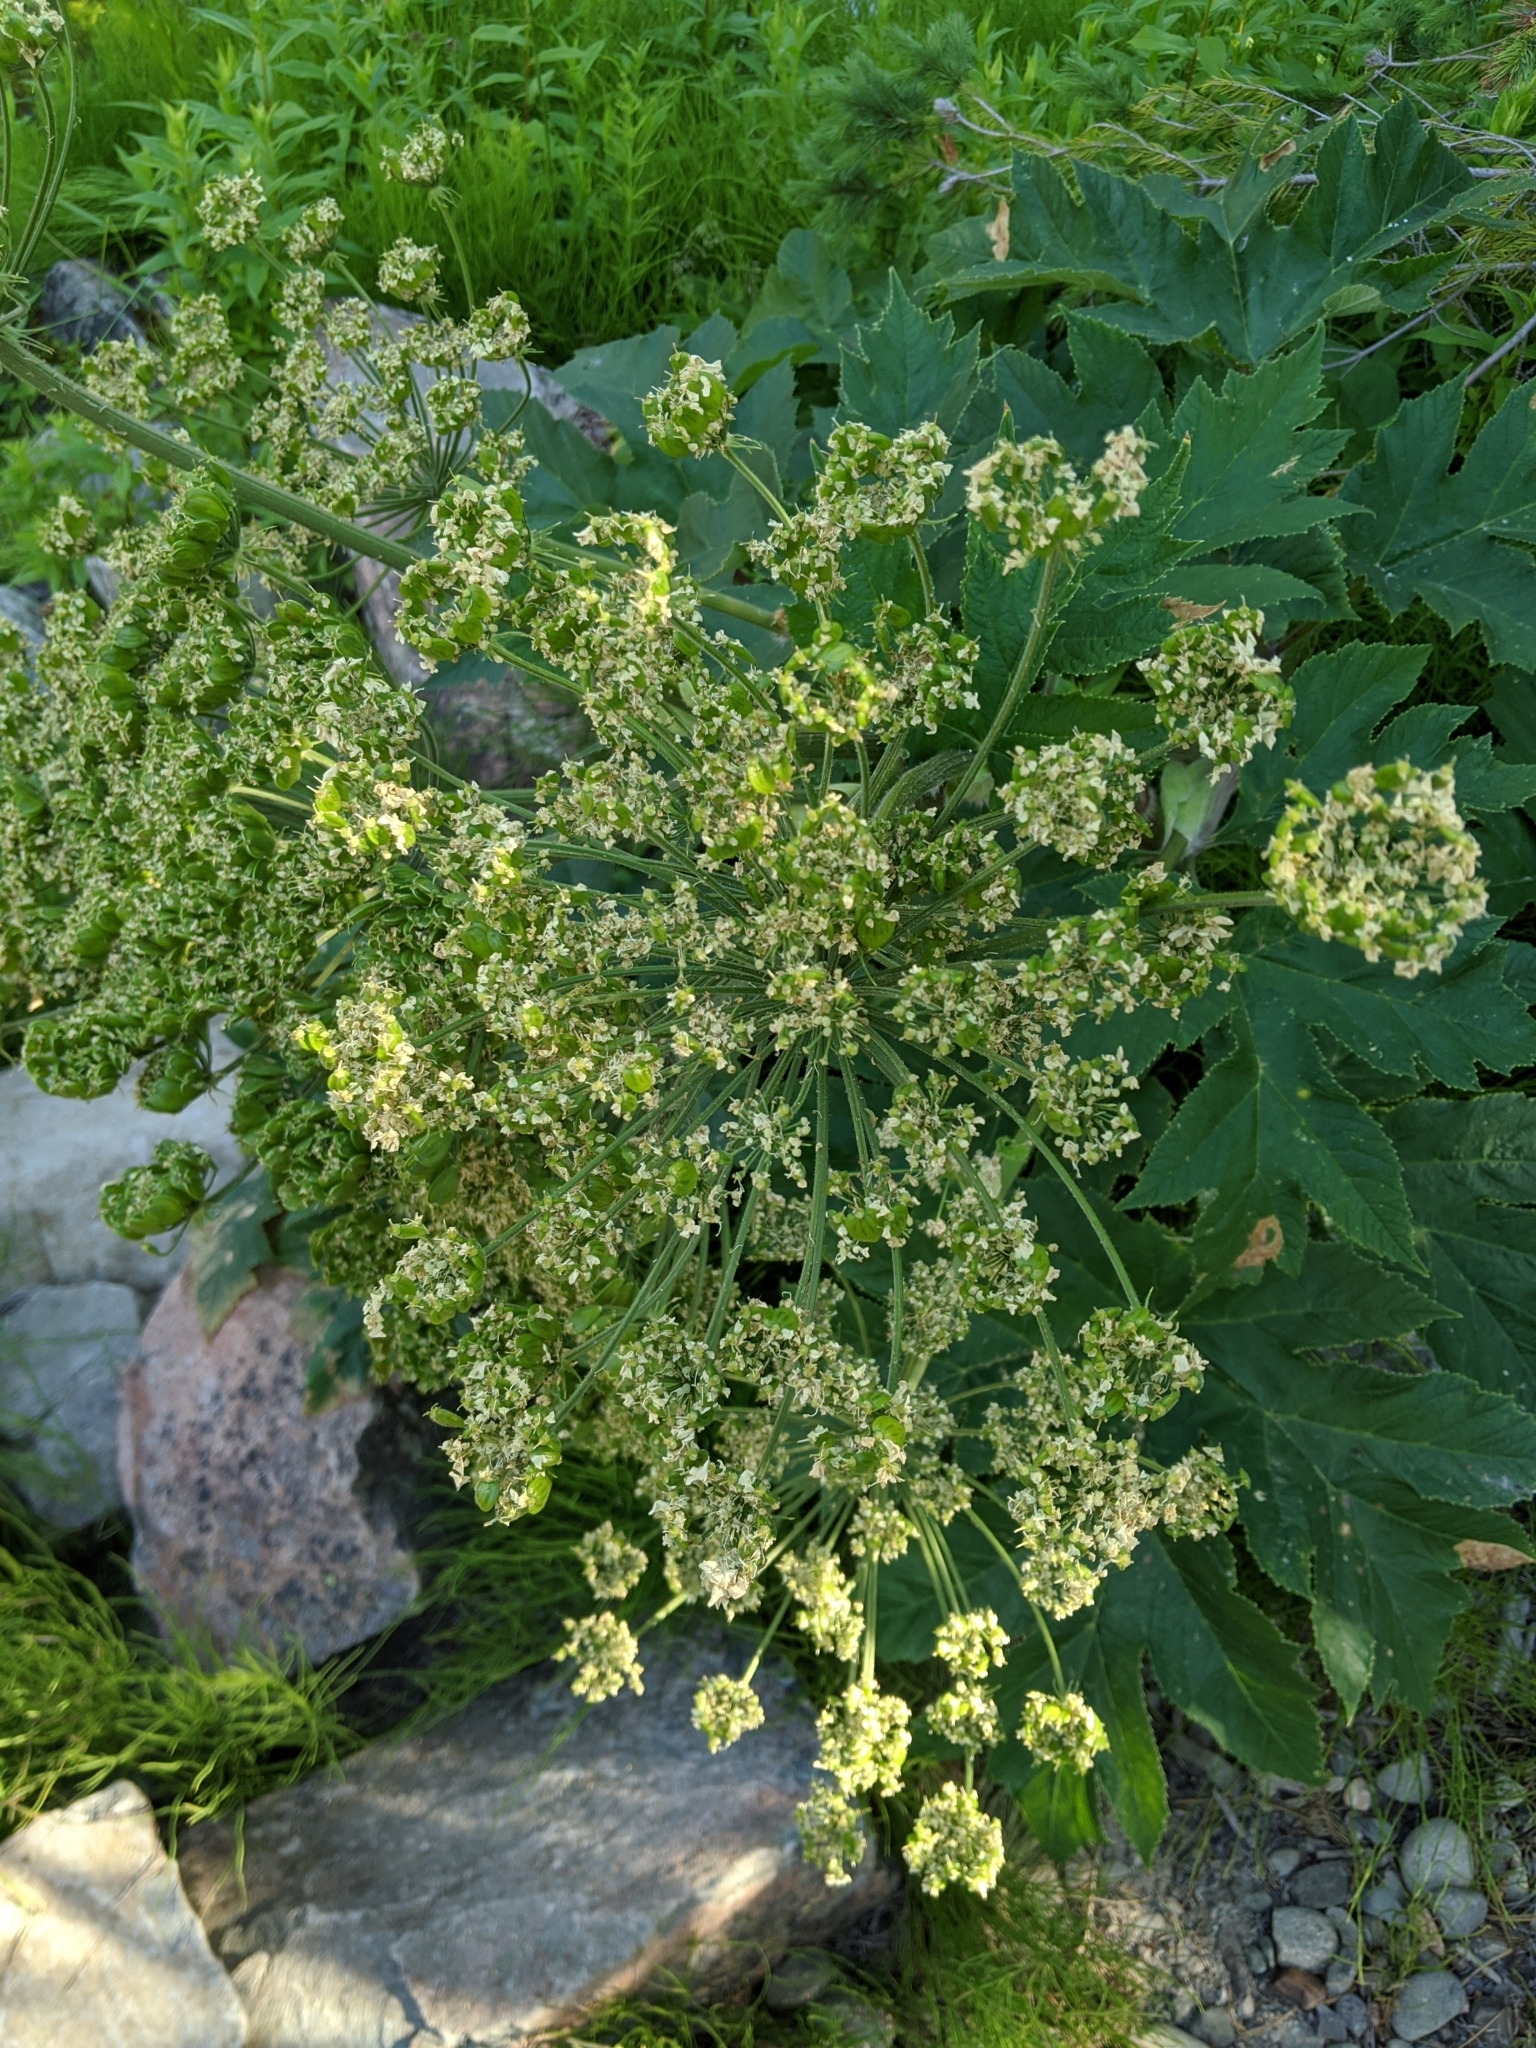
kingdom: Plantae
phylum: Tracheophyta
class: Magnoliopsida
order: Apiales
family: Apiaceae
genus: Heracleum
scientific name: Heracleum maximum
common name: American cow parsnip
